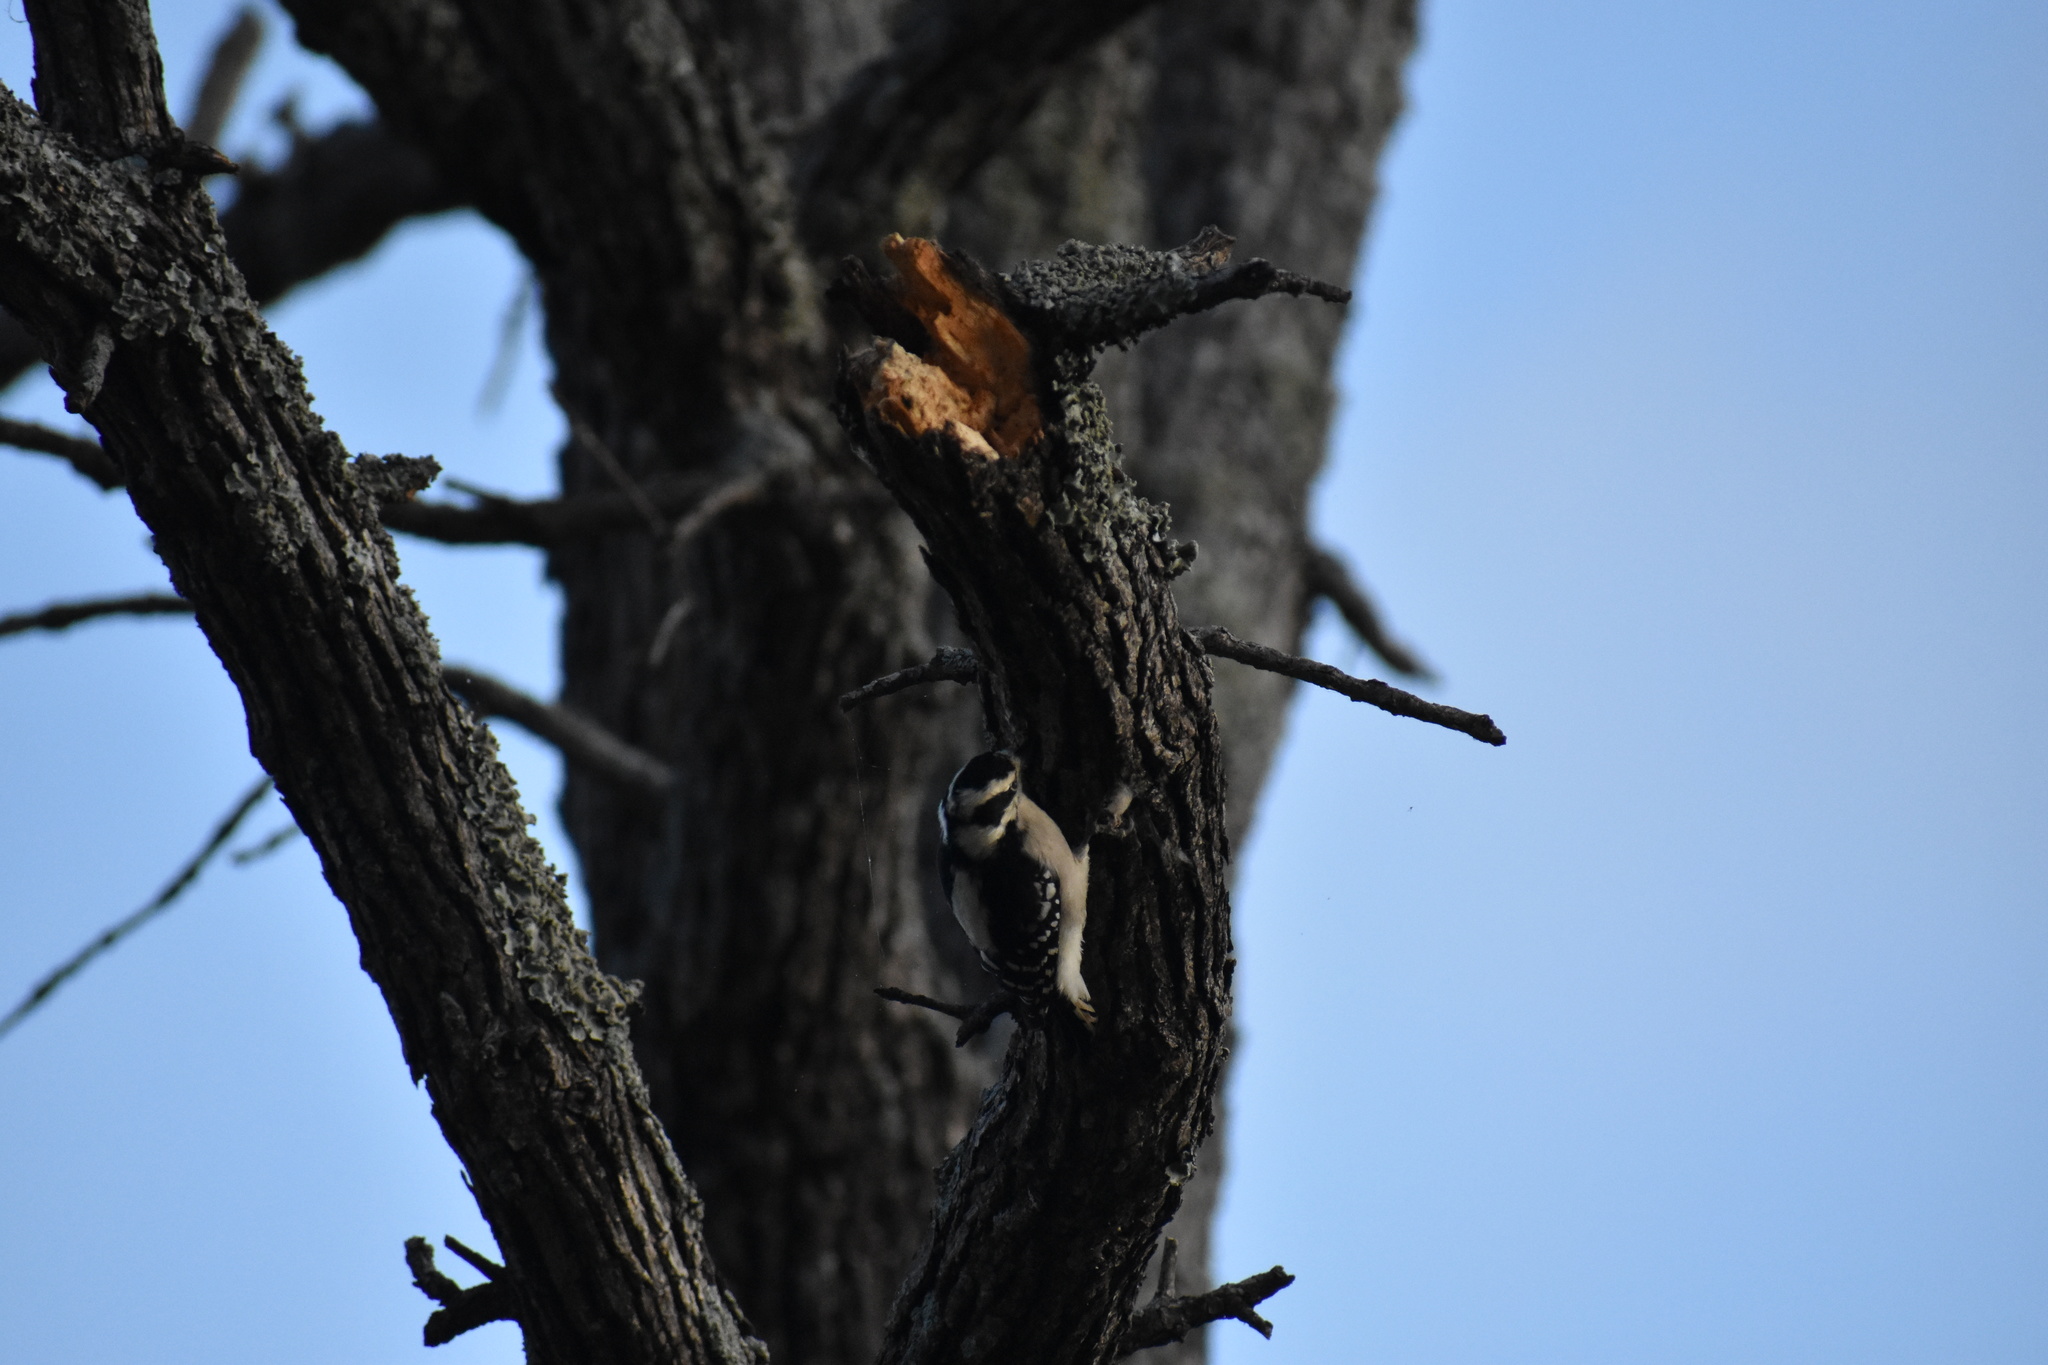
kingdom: Animalia
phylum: Chordata
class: Aves
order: Piciformes
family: Picidae
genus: Dryobates
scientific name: Dryobates pubescens
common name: Downy woodpecker
